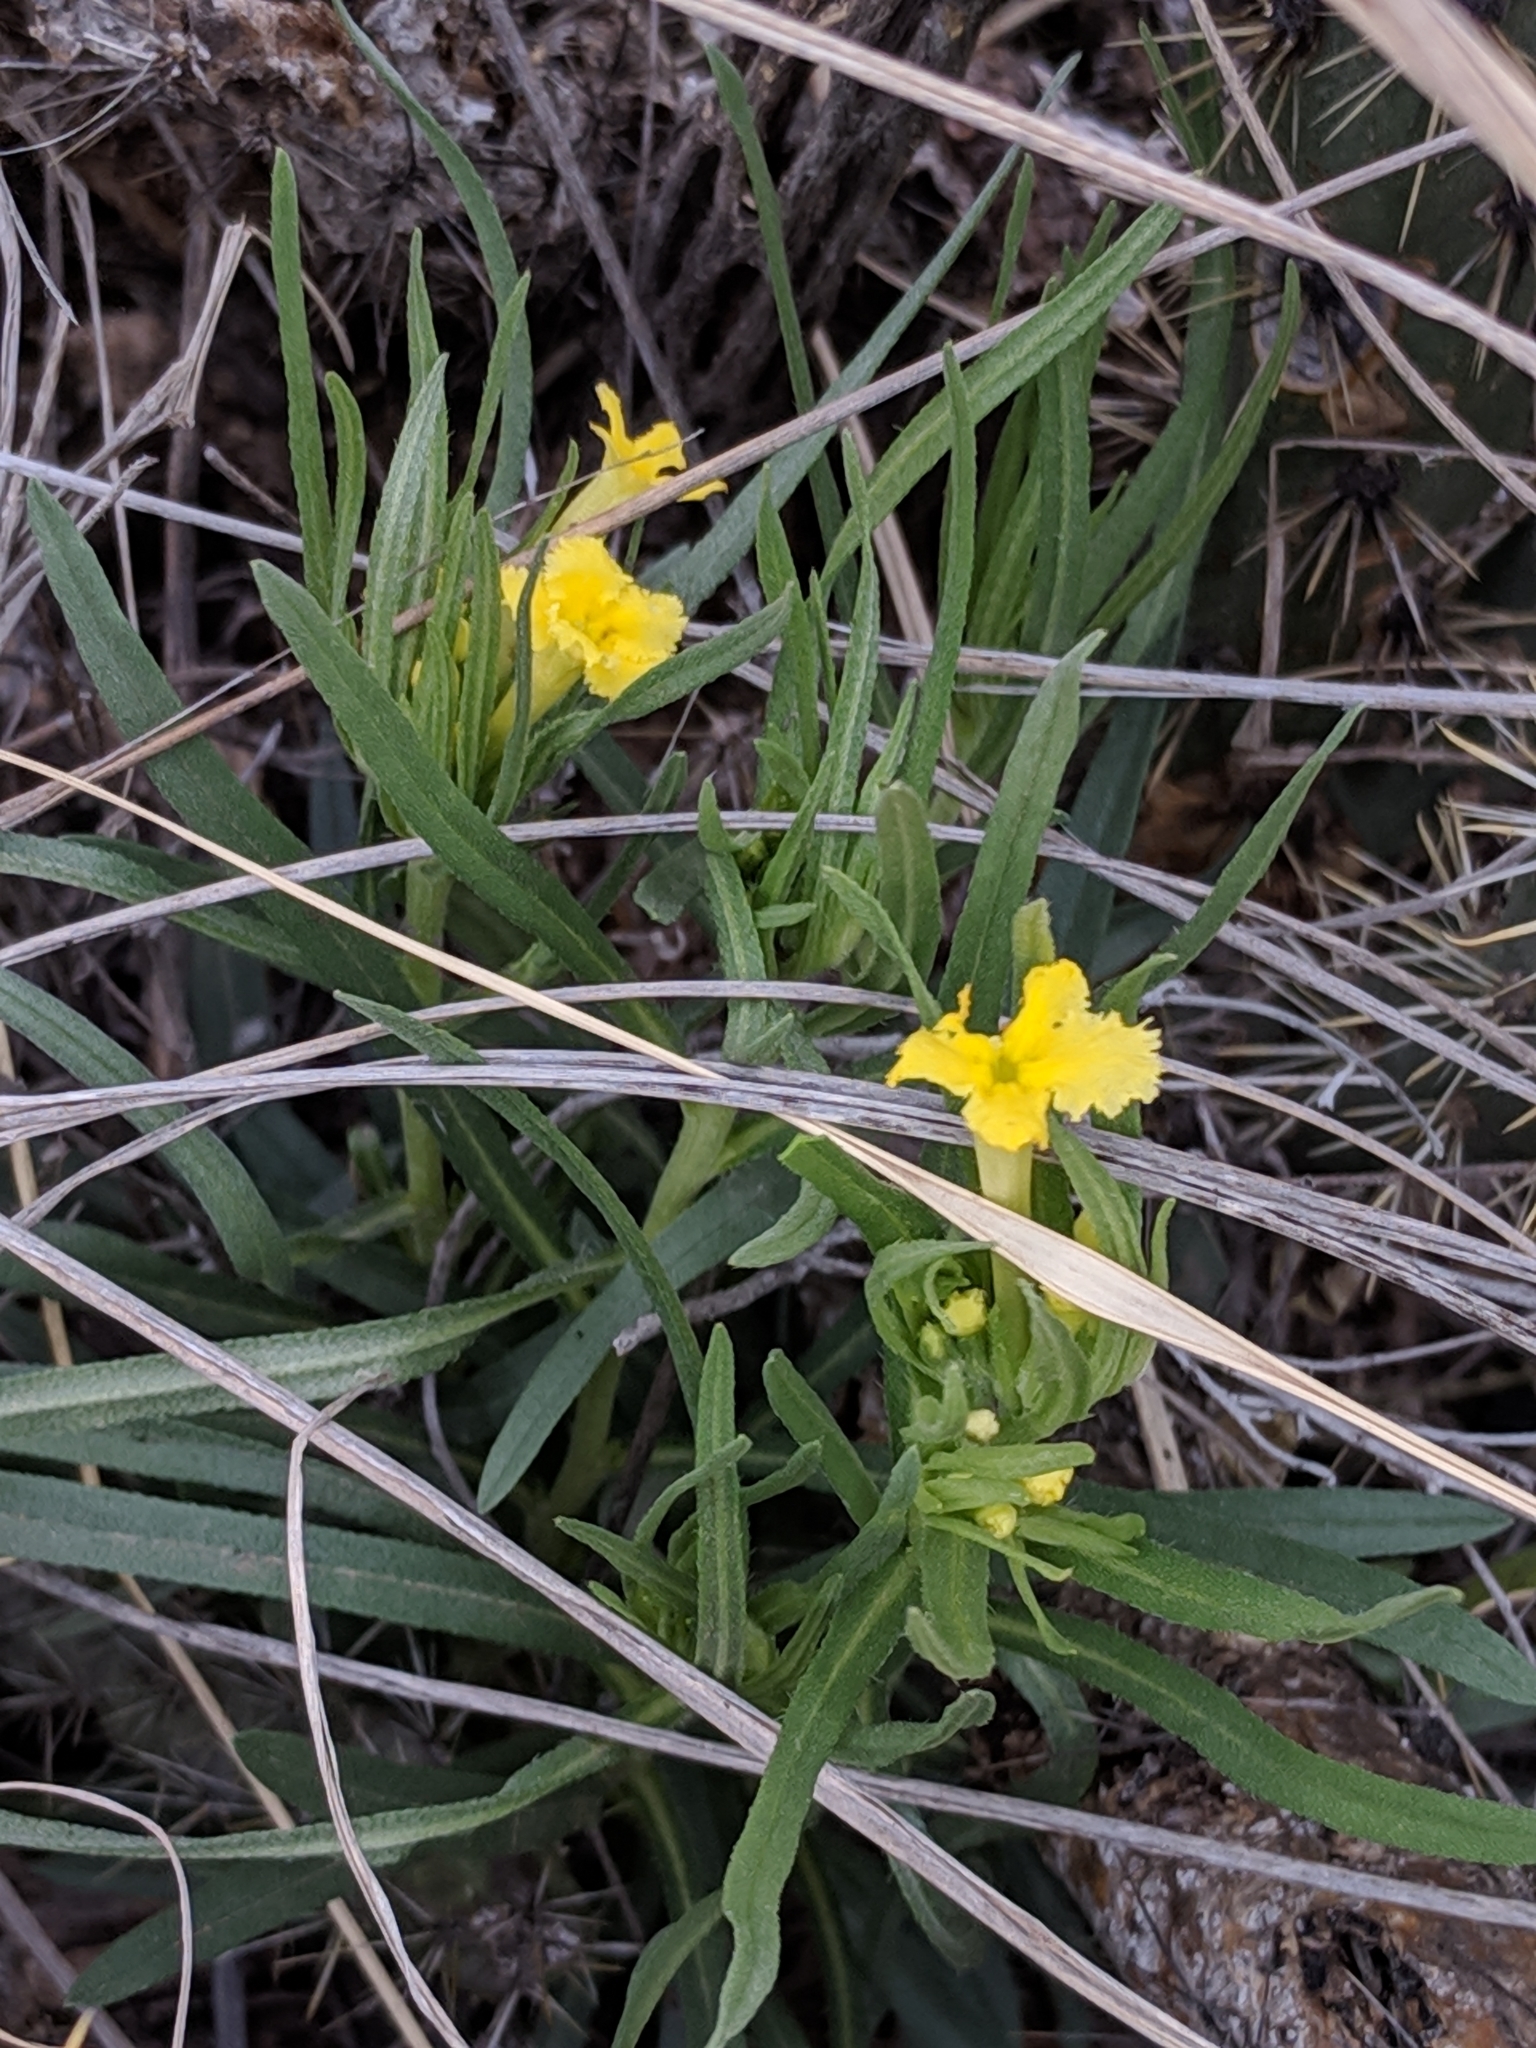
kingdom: Plantae
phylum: Tracheophyta
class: Magnoliopsida
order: Boraginales
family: Boraginaceae
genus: Lithospermum
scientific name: Lithospermum incisum
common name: Fringed gromwell
